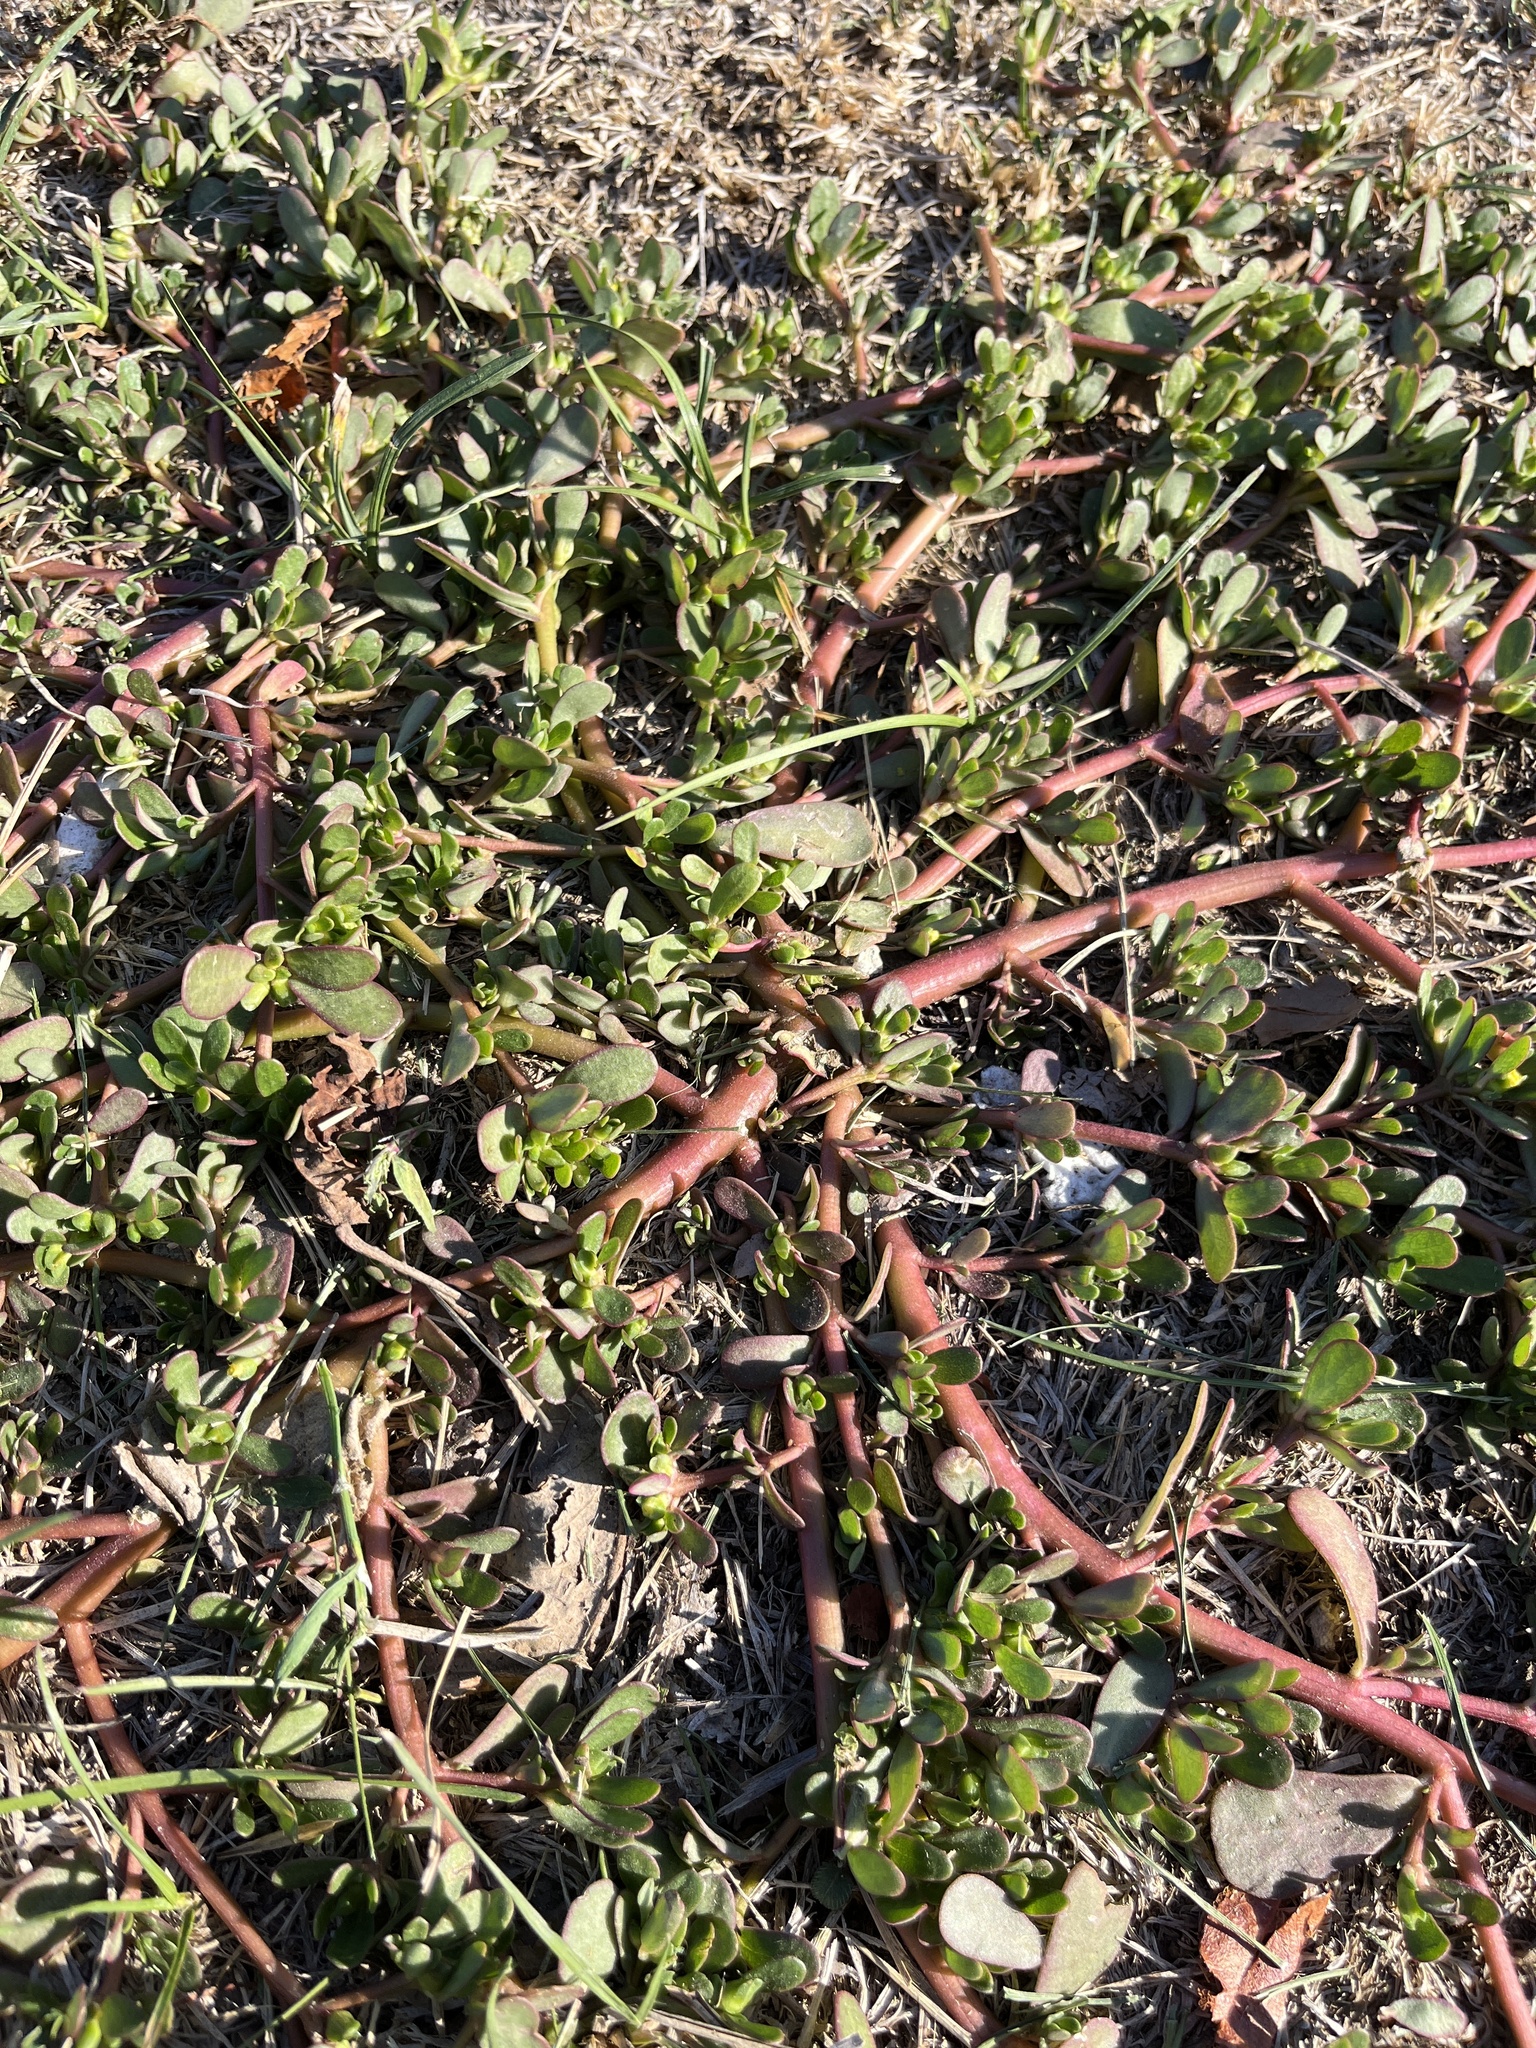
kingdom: Plantae
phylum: Tracheophyta
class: Magnoliopsida
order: Caryophyllales
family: Portulacaceae
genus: Portulaca
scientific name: Portulaca oleracea
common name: Common purslane
